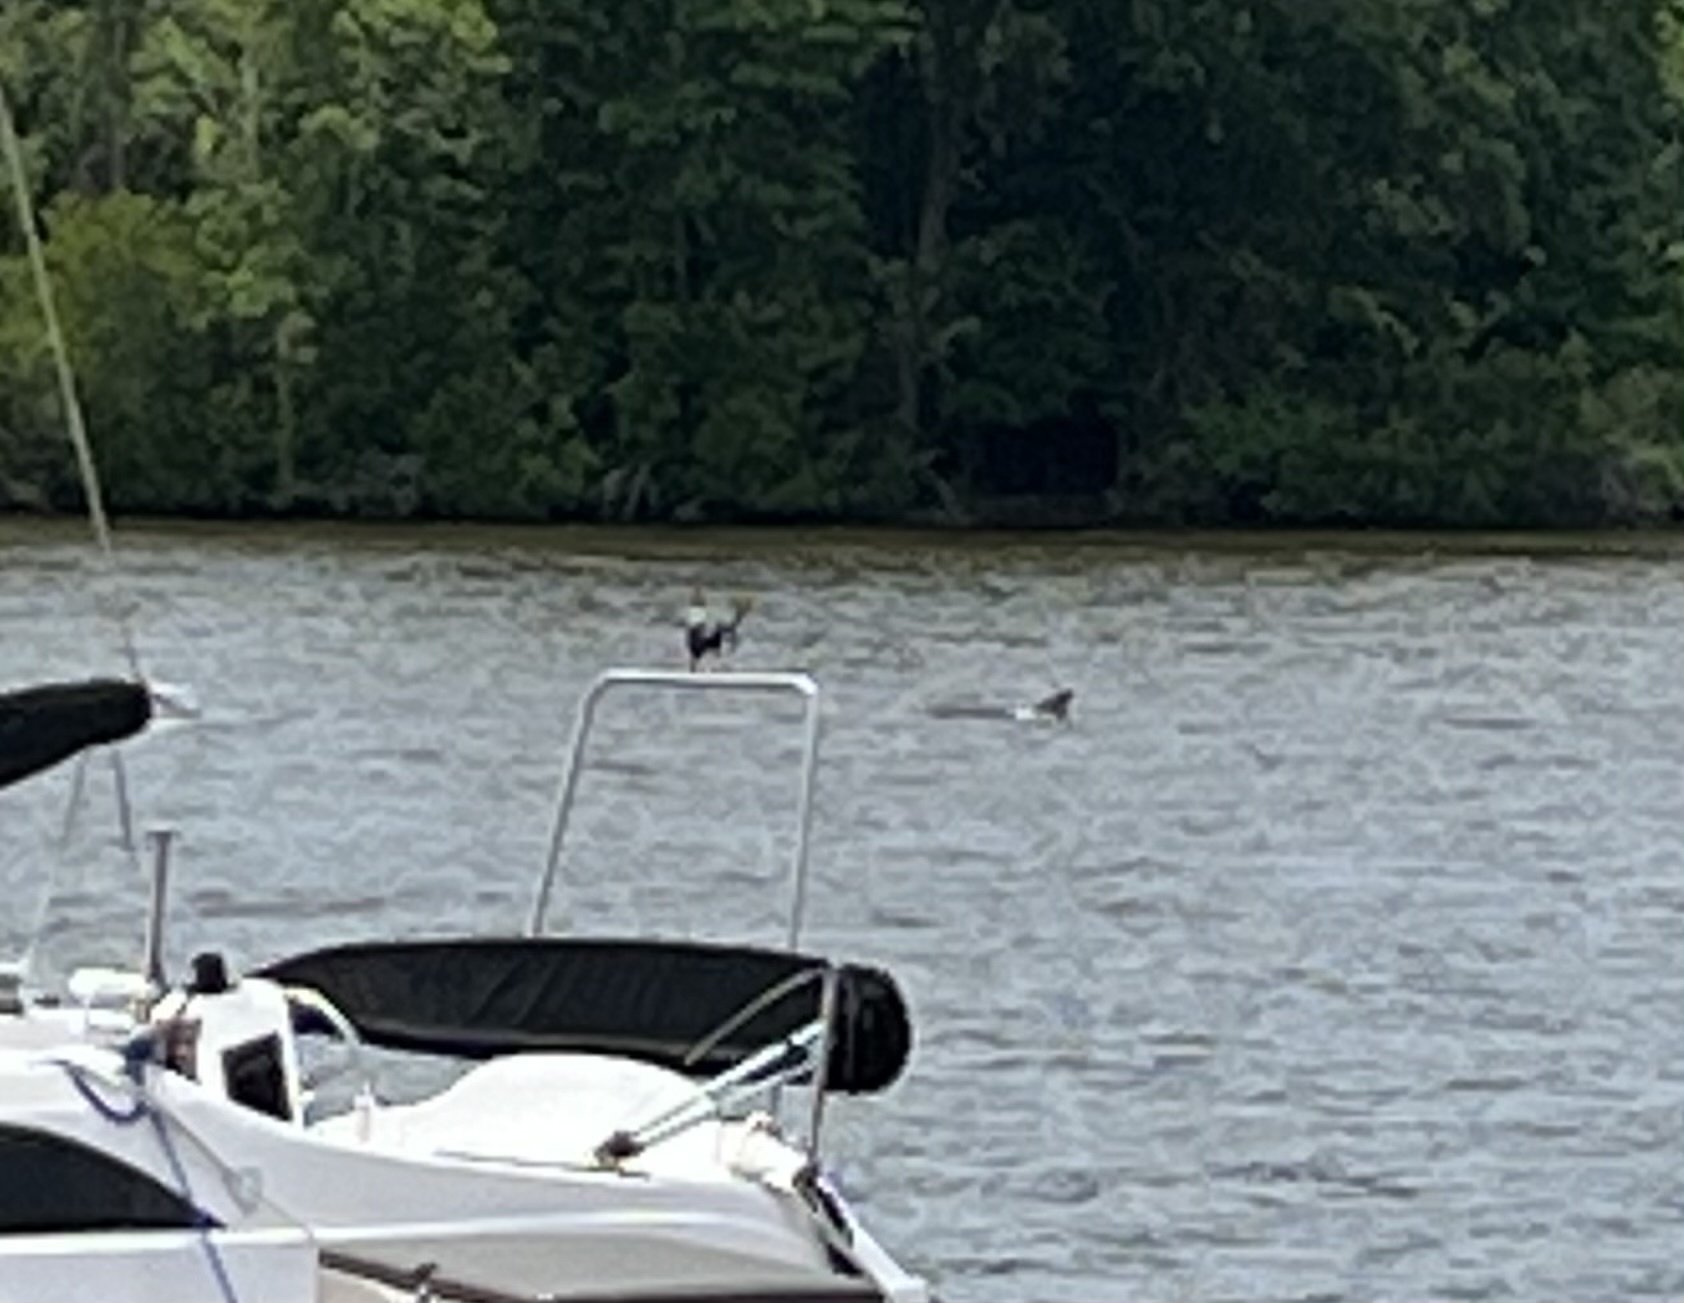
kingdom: Animalia
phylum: Chordata
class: Mammalia
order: Cetacea
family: Delphinidae
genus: Tursiops
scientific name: Tursiops truncatus
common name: Bottlenose dolphin
